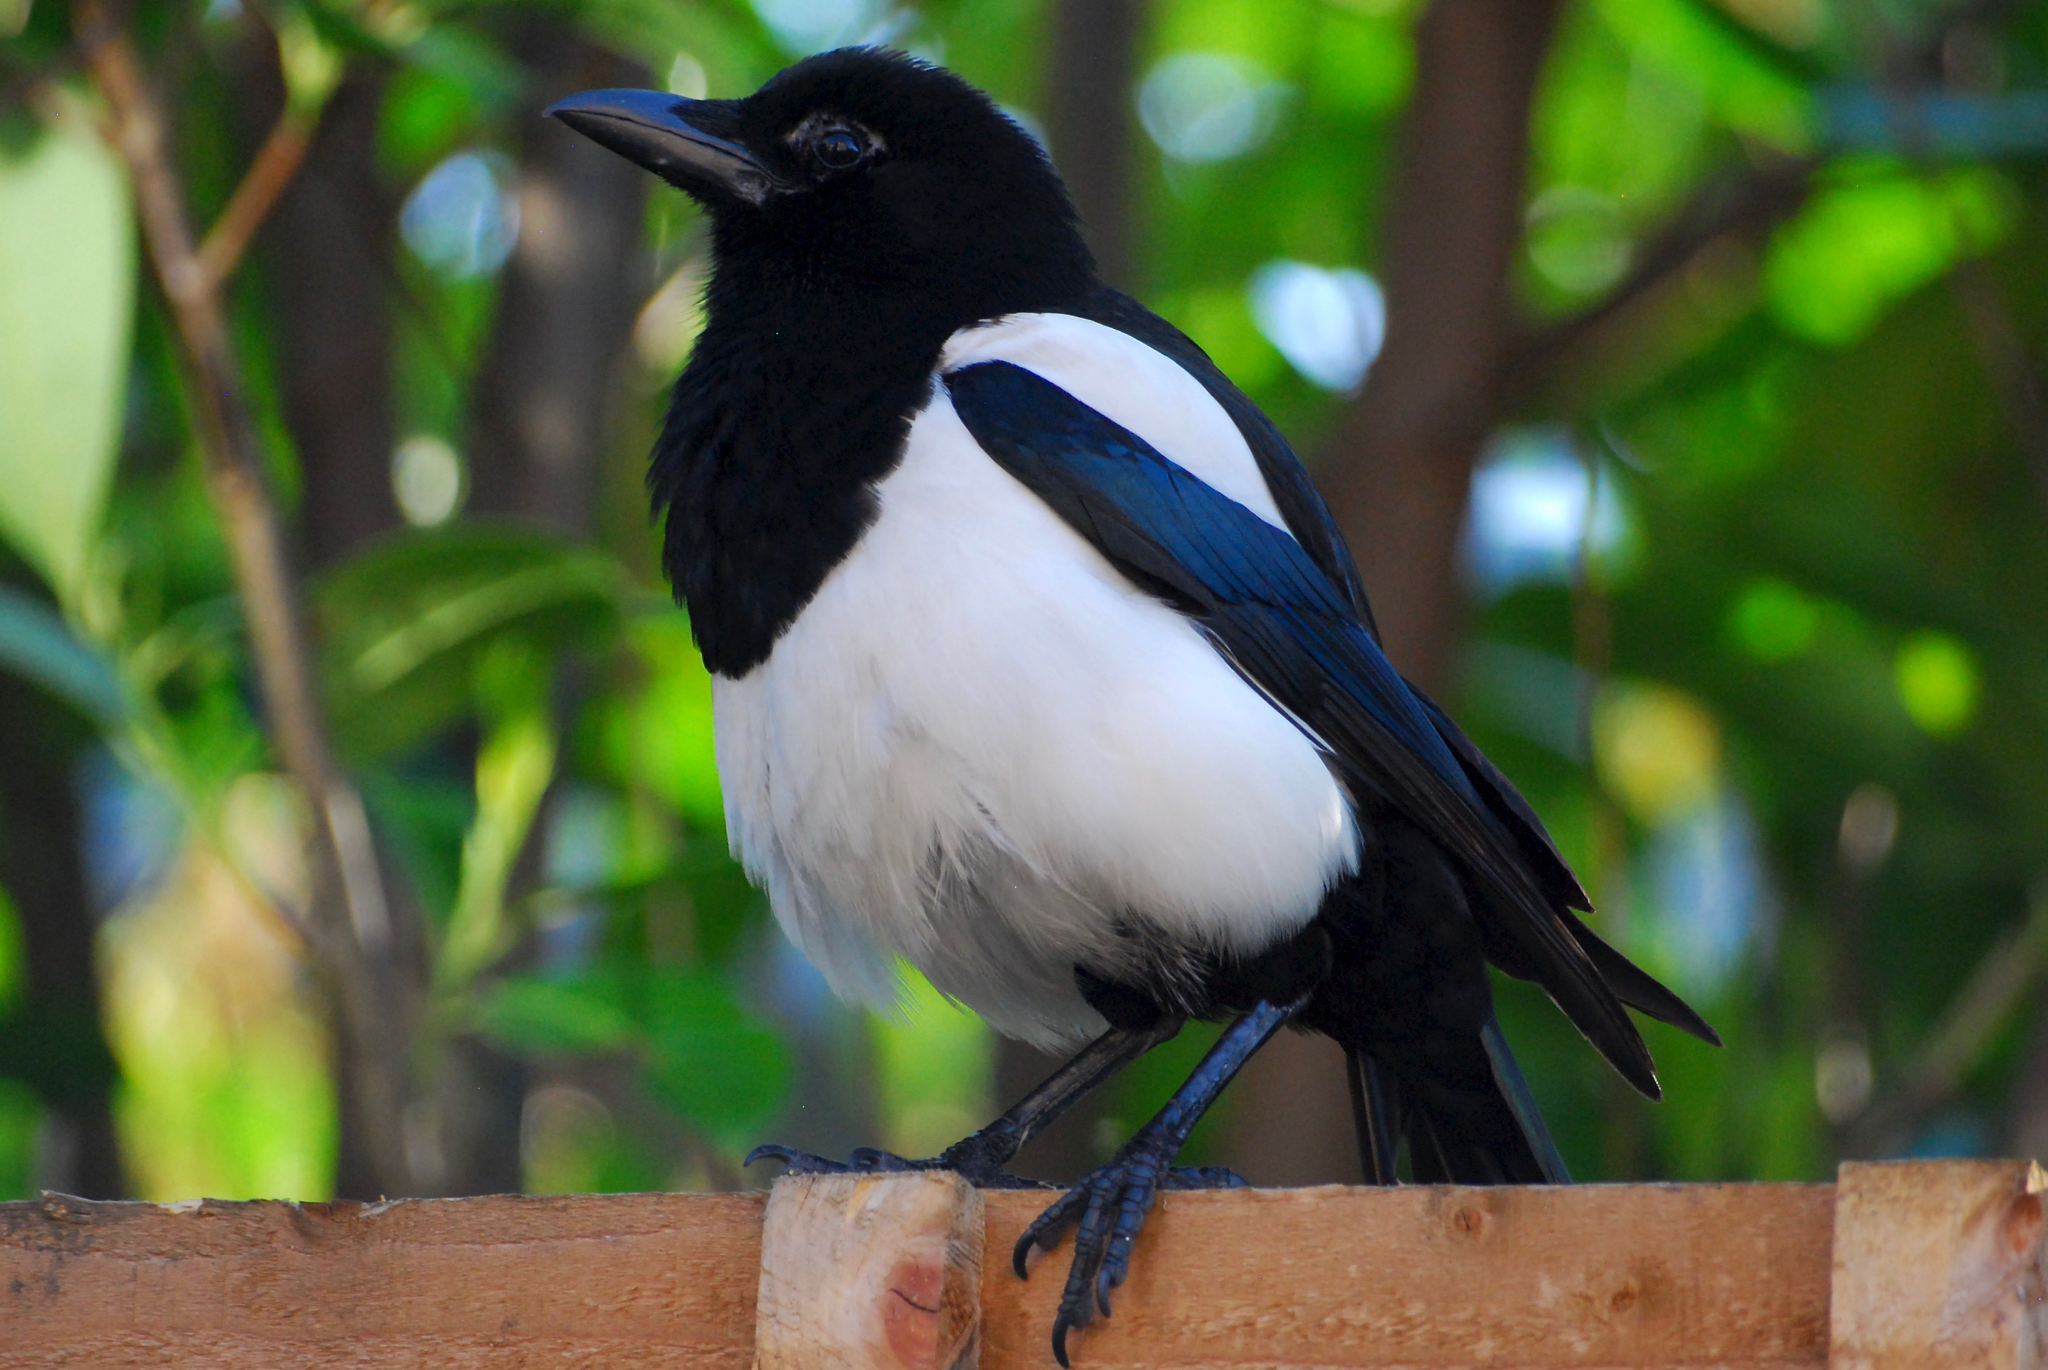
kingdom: Animalia
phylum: Chordata
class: Aves
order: Passeriformes
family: Corvidae
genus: Pica
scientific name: Pica pica
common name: Eurasian magpie
